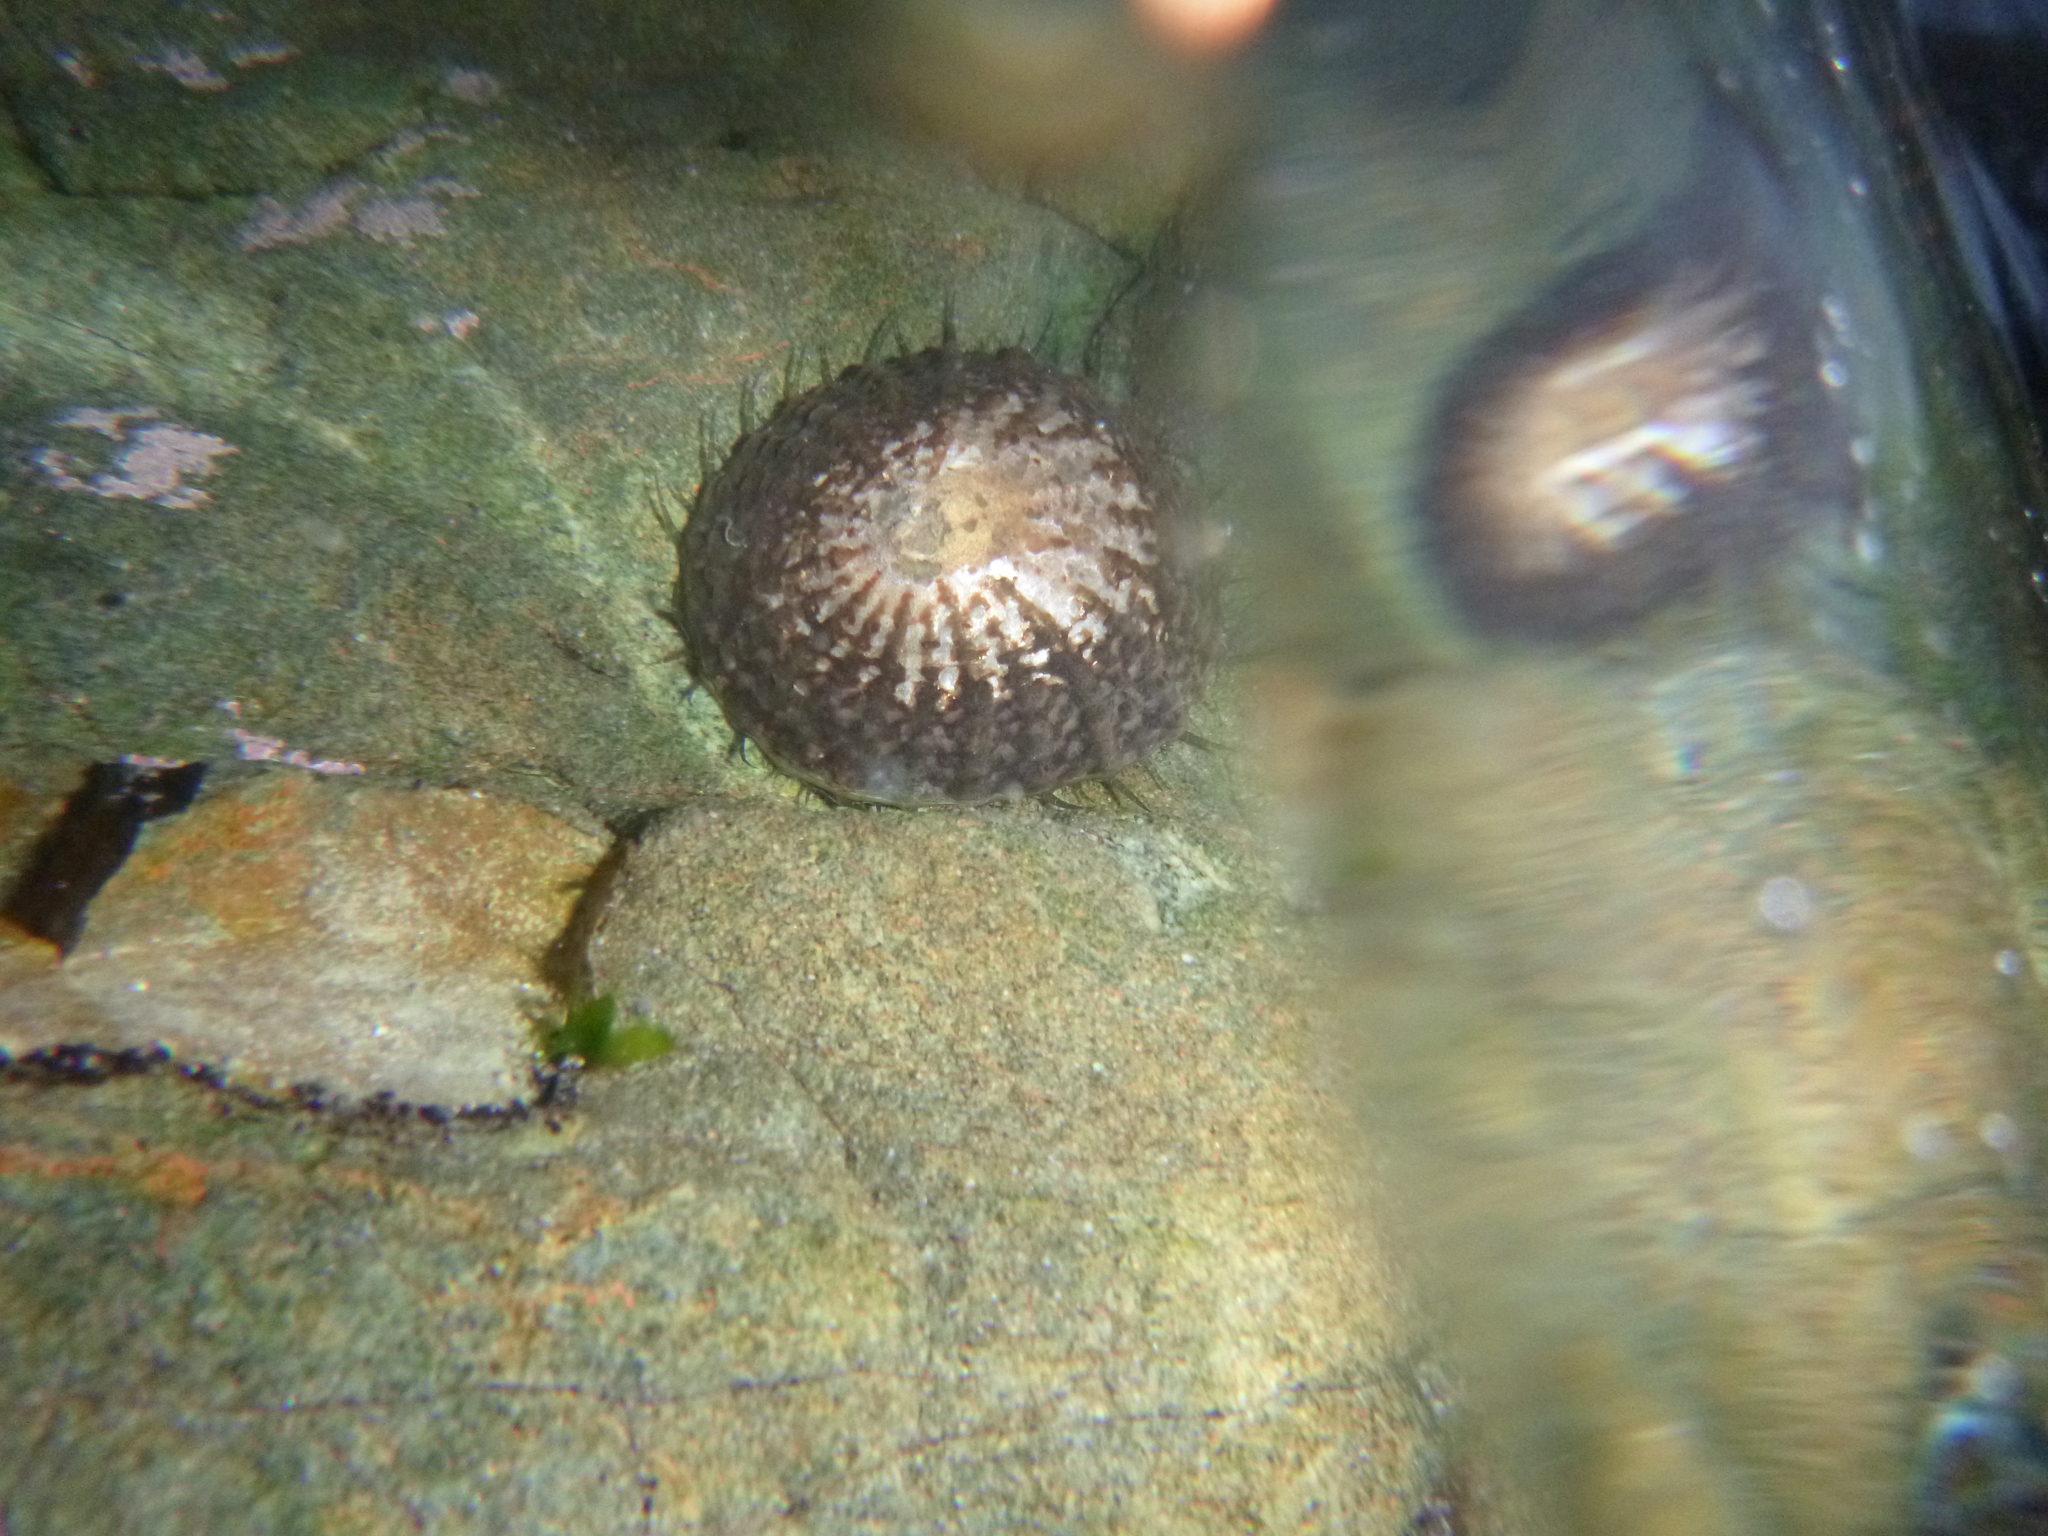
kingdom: Animalia
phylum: Mollusca
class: Gastropoda
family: Nacellidae
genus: Cellana
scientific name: Cellana denticulata
